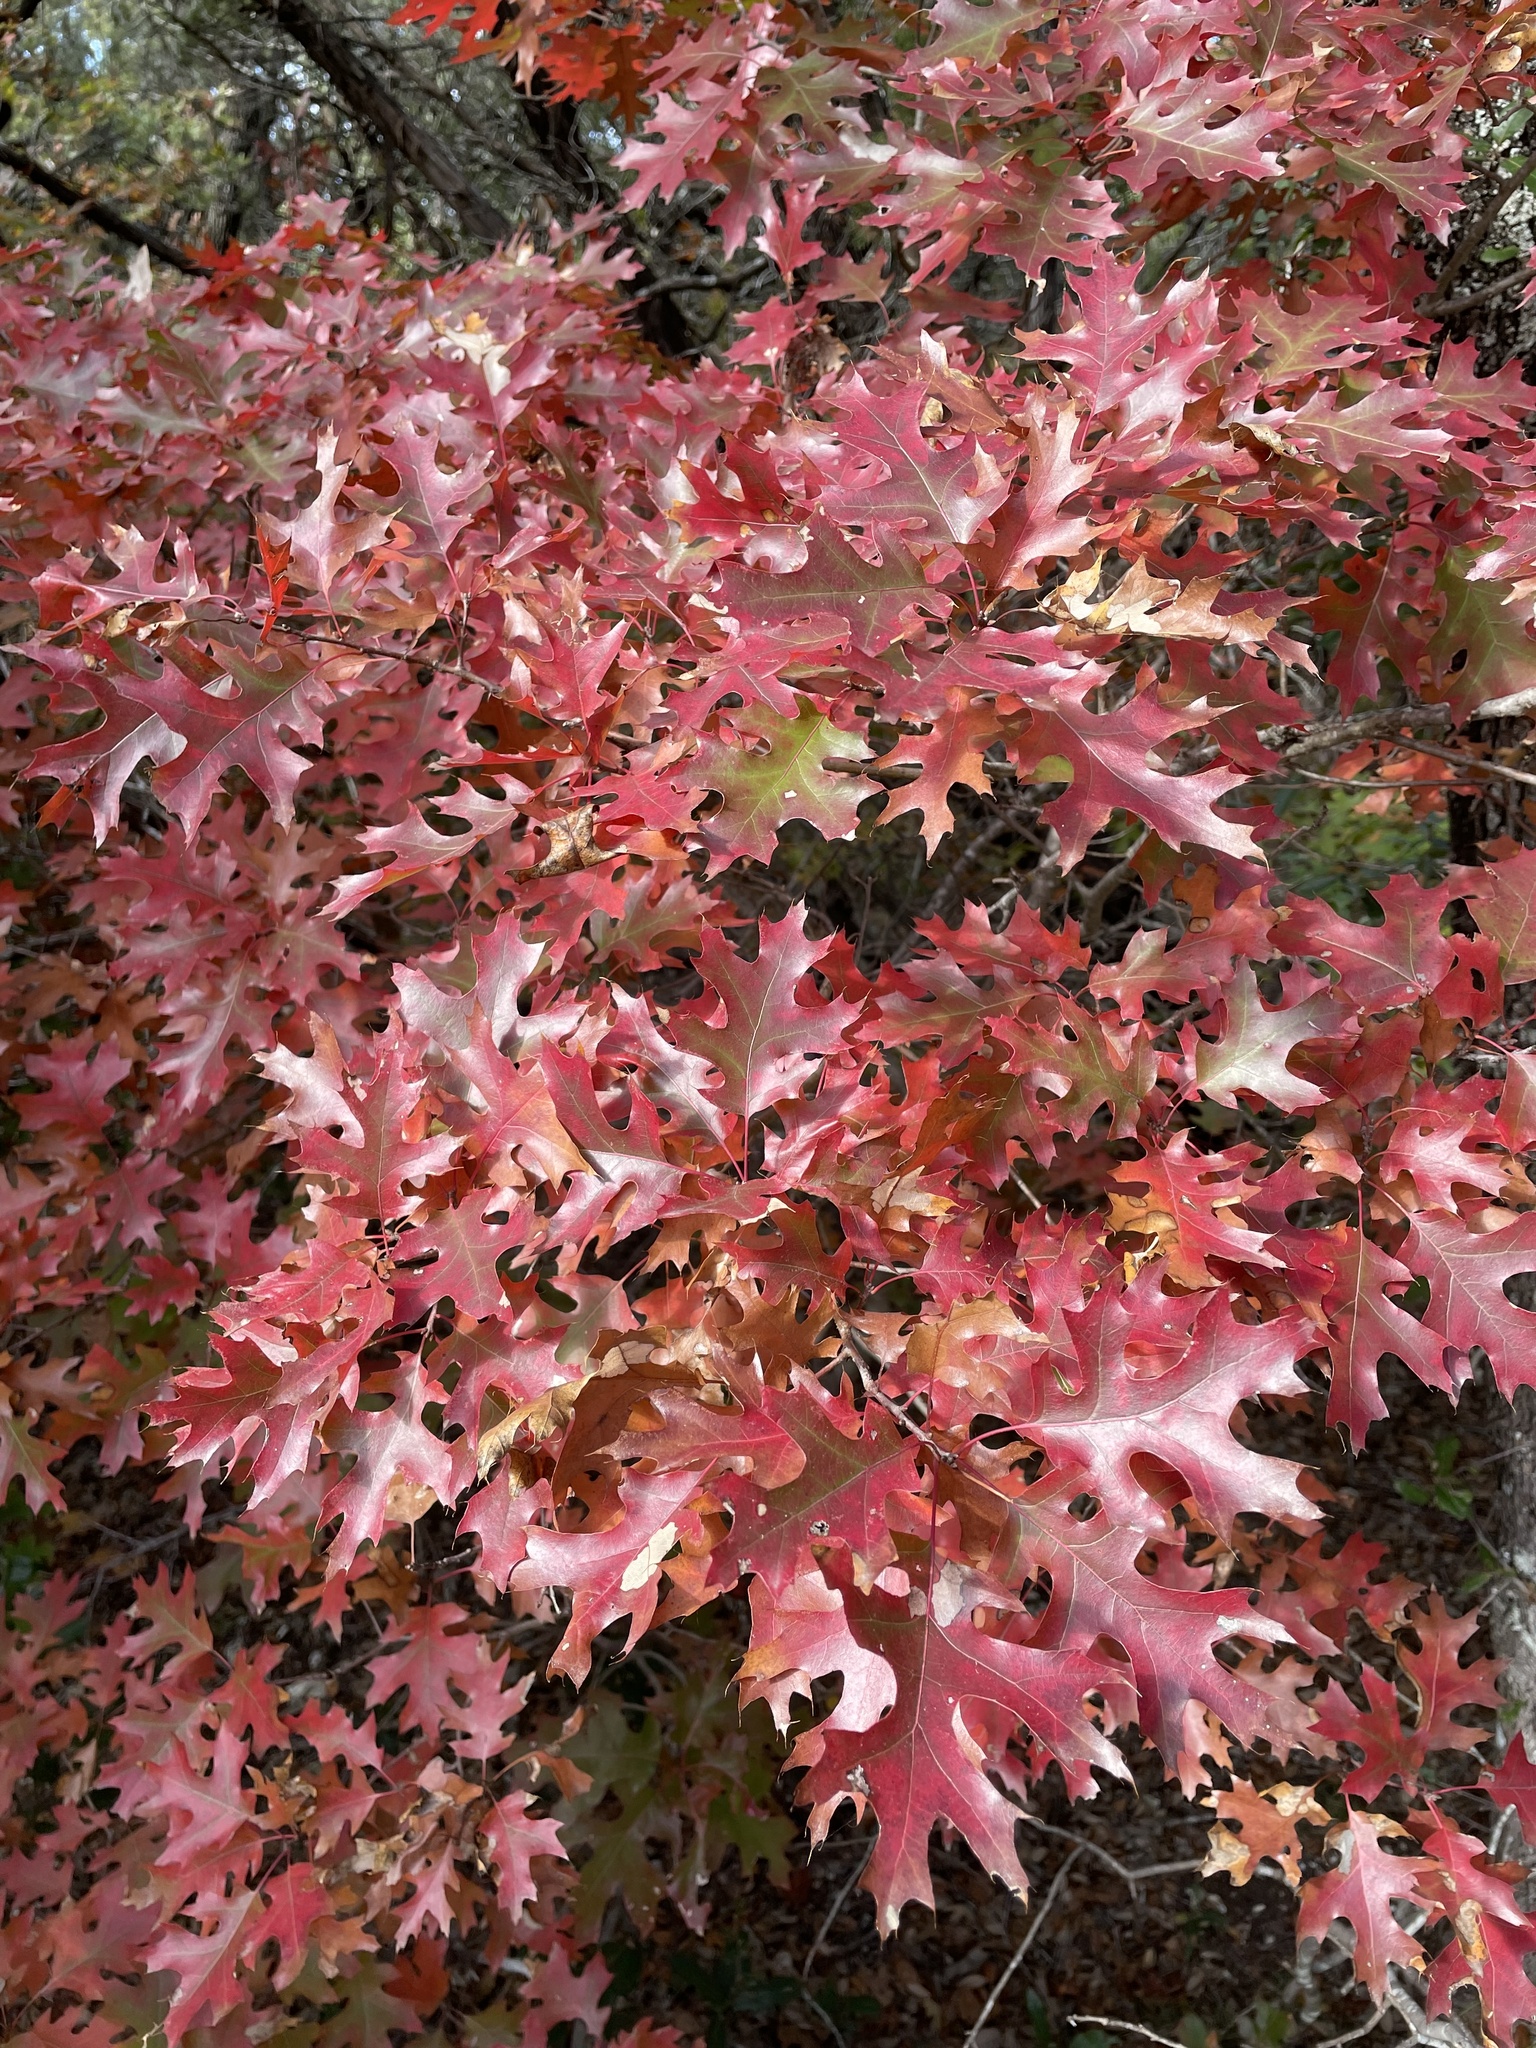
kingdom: Plantae
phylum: Tracheophyta
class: Magnoliopsida
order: Fagales
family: Fagaceae
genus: Quercus
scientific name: Quercus buckleyi
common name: Buckley oak
